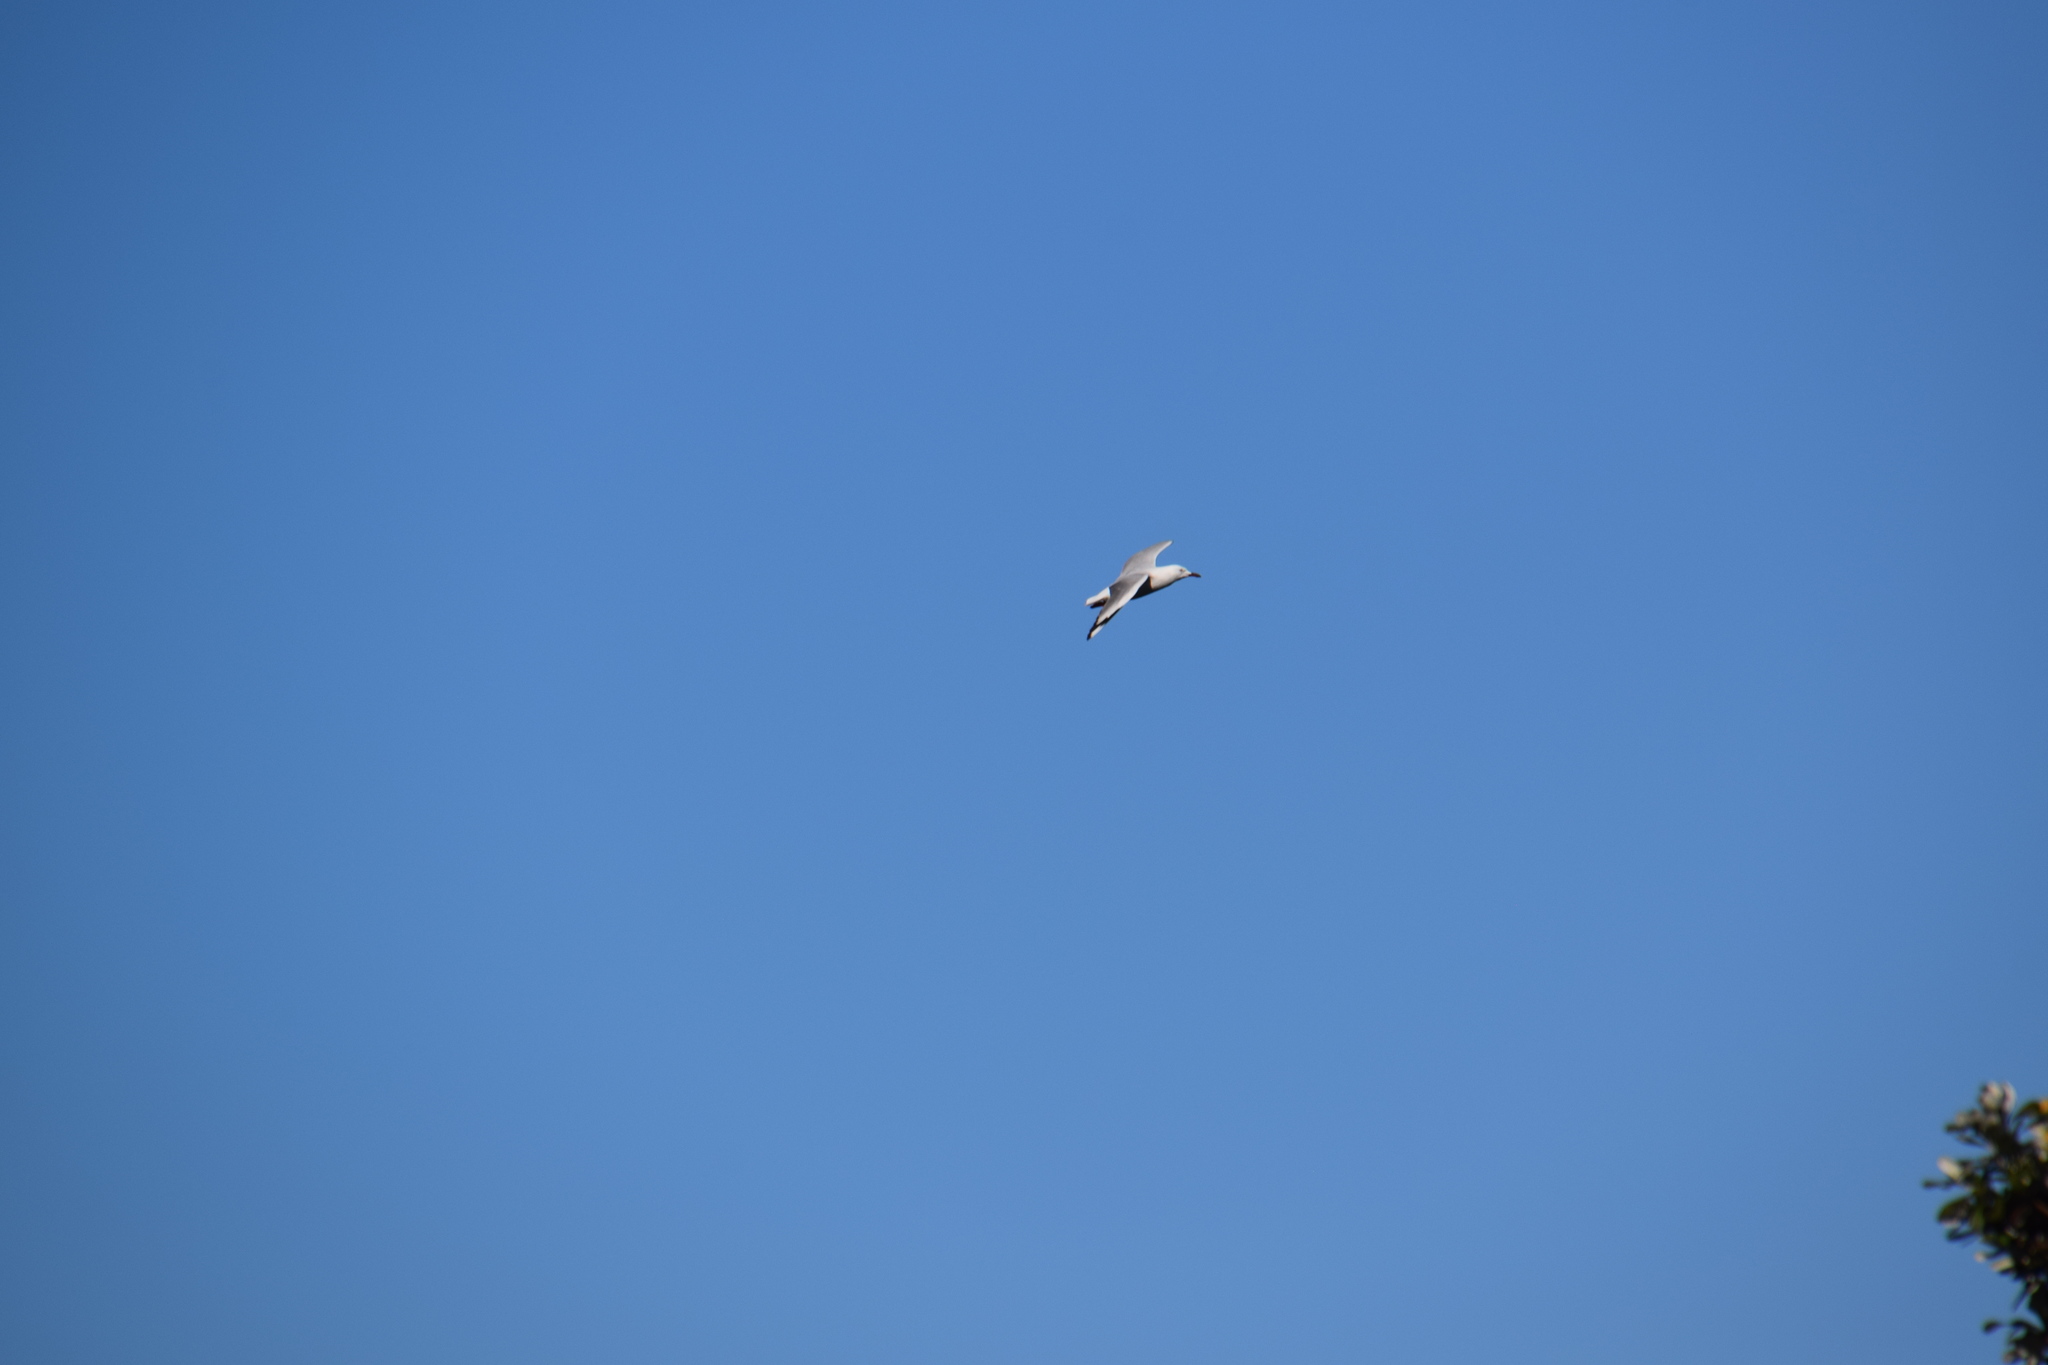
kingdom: Animalia
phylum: Chordata
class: Aves
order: Charadriiformes
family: Laridae
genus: Chroicocephalus
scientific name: Chroicocephalus novaehollandiae
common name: Silver gull
